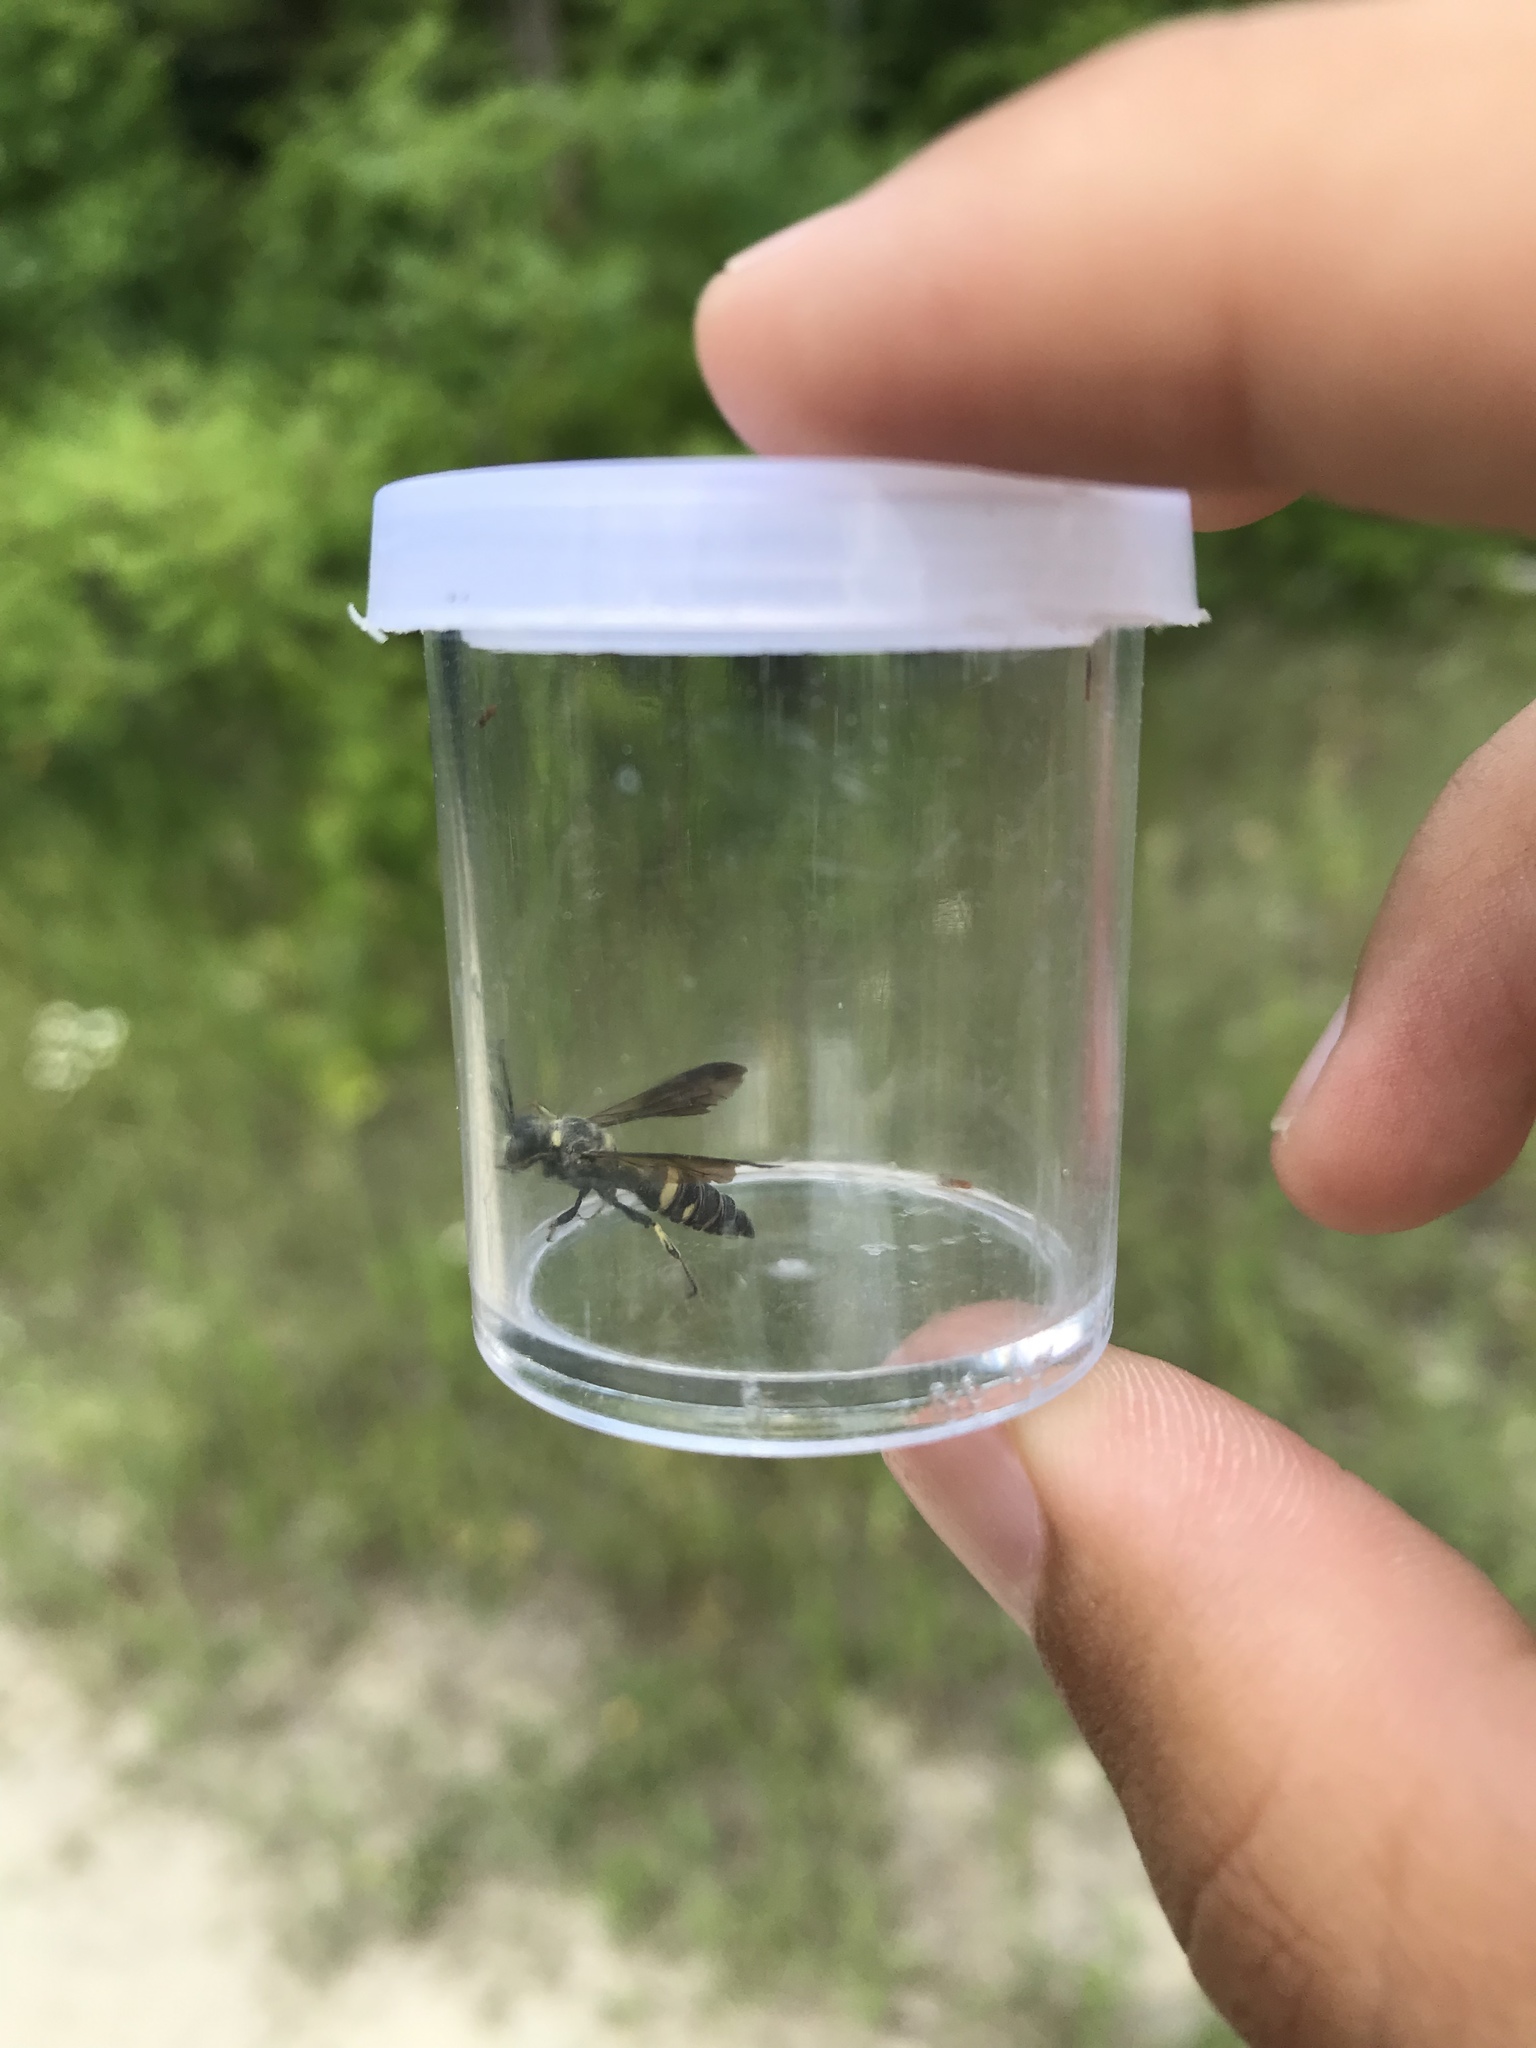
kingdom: Animalia
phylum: Arthropoda
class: Insecta
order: Hymenoptera
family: Crabronidae
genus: Cerceris
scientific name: Cerceris fumipennis
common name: Smokey-winged beetle bandit wasp
